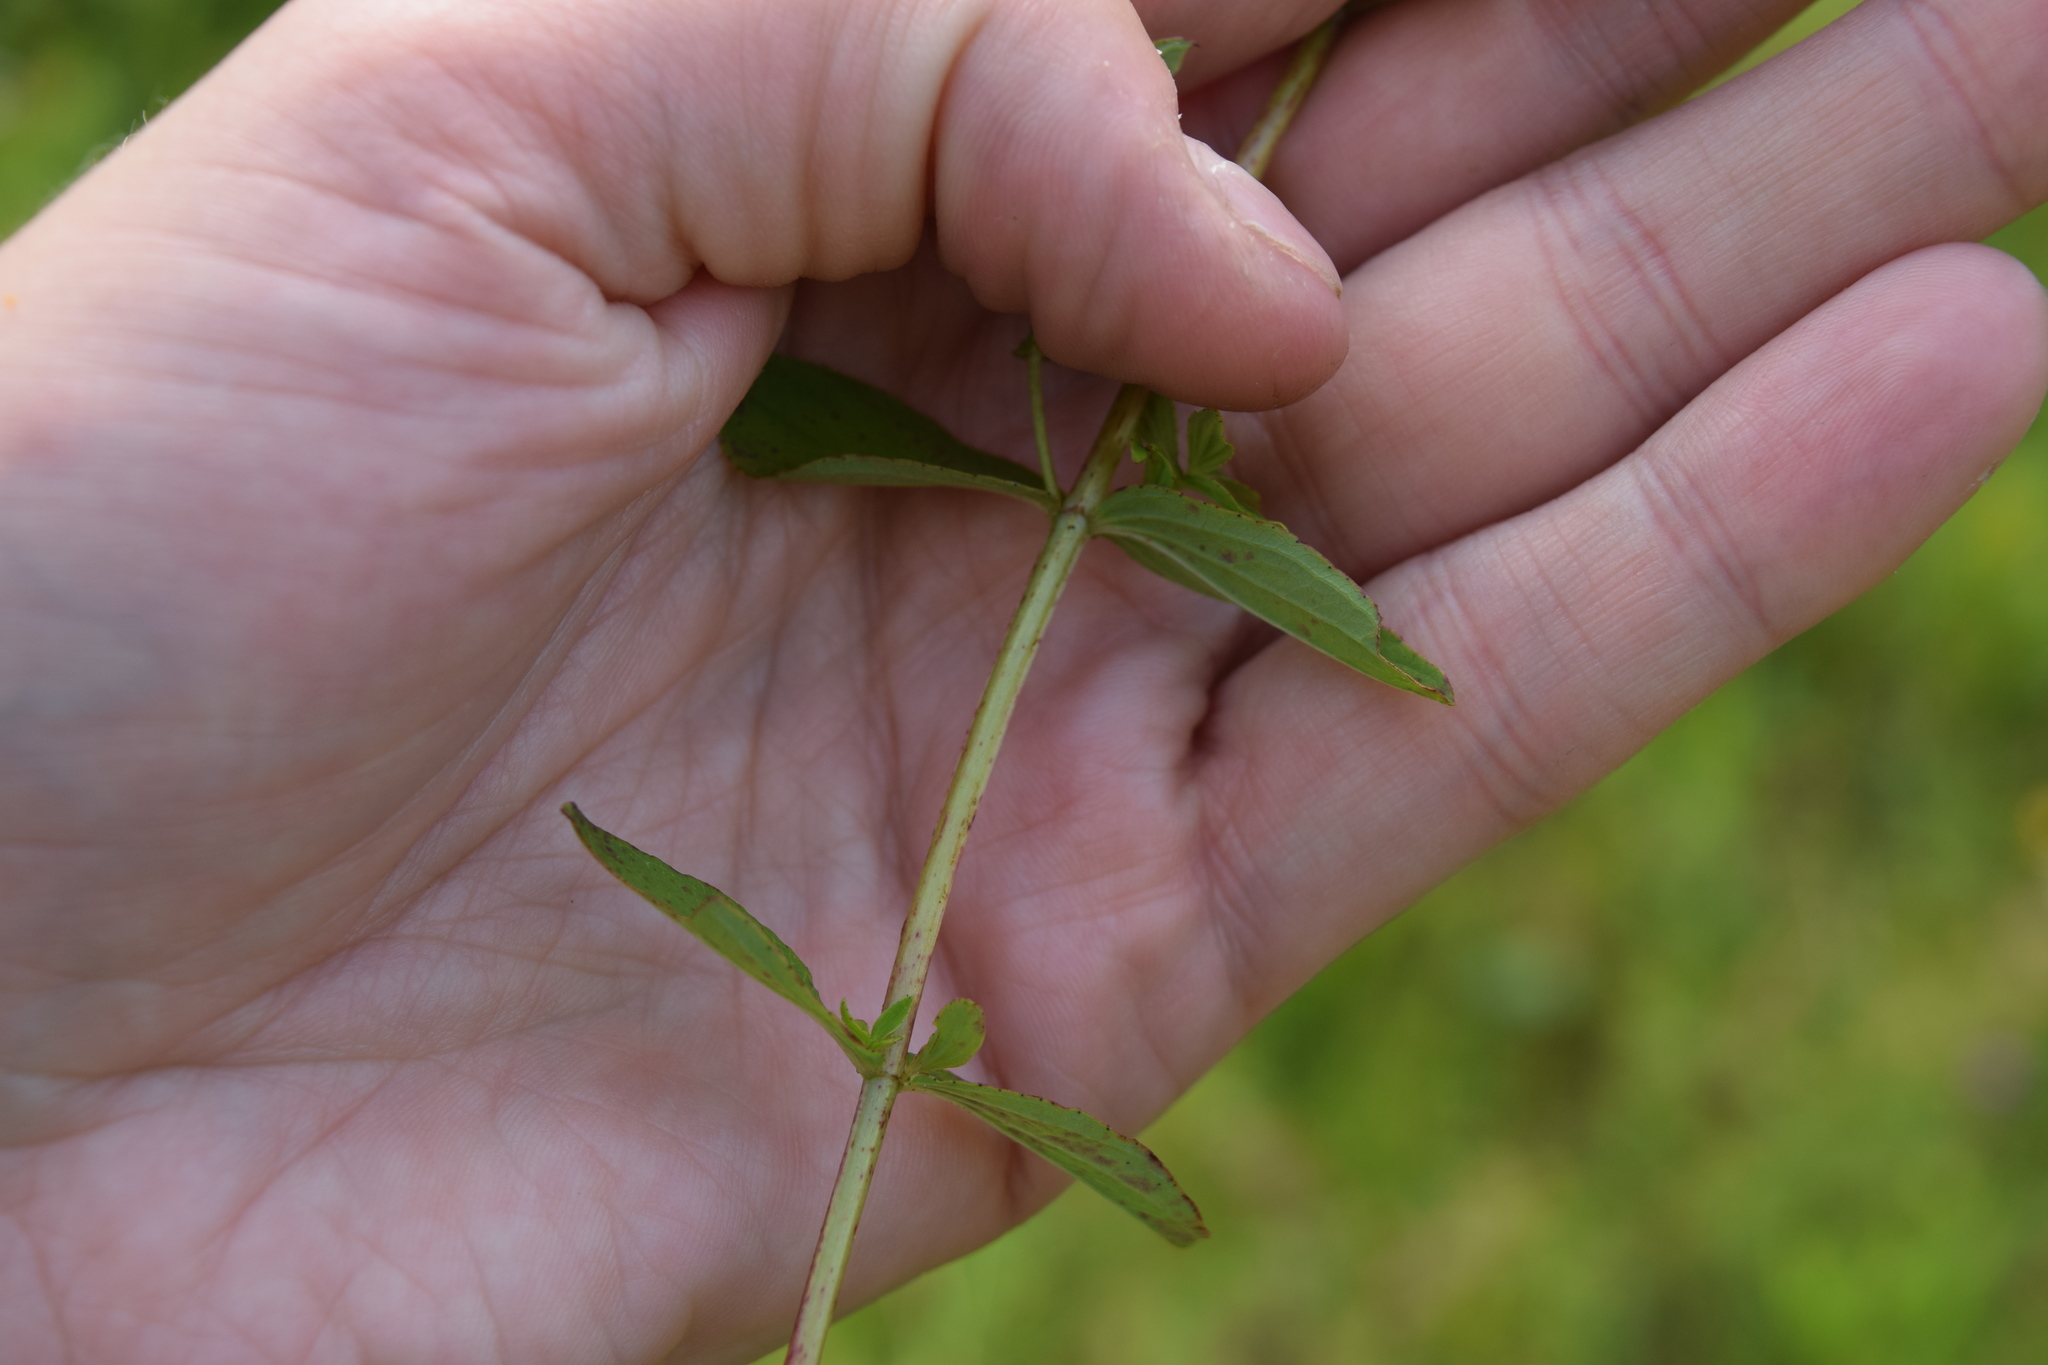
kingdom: Plantae
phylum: Tracheophyta
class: Magnoliopsida
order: Malpighiales
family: Hypericaceae
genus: Hypericum
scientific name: Hypericum maculatum
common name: Imperforate st. john's-wort
